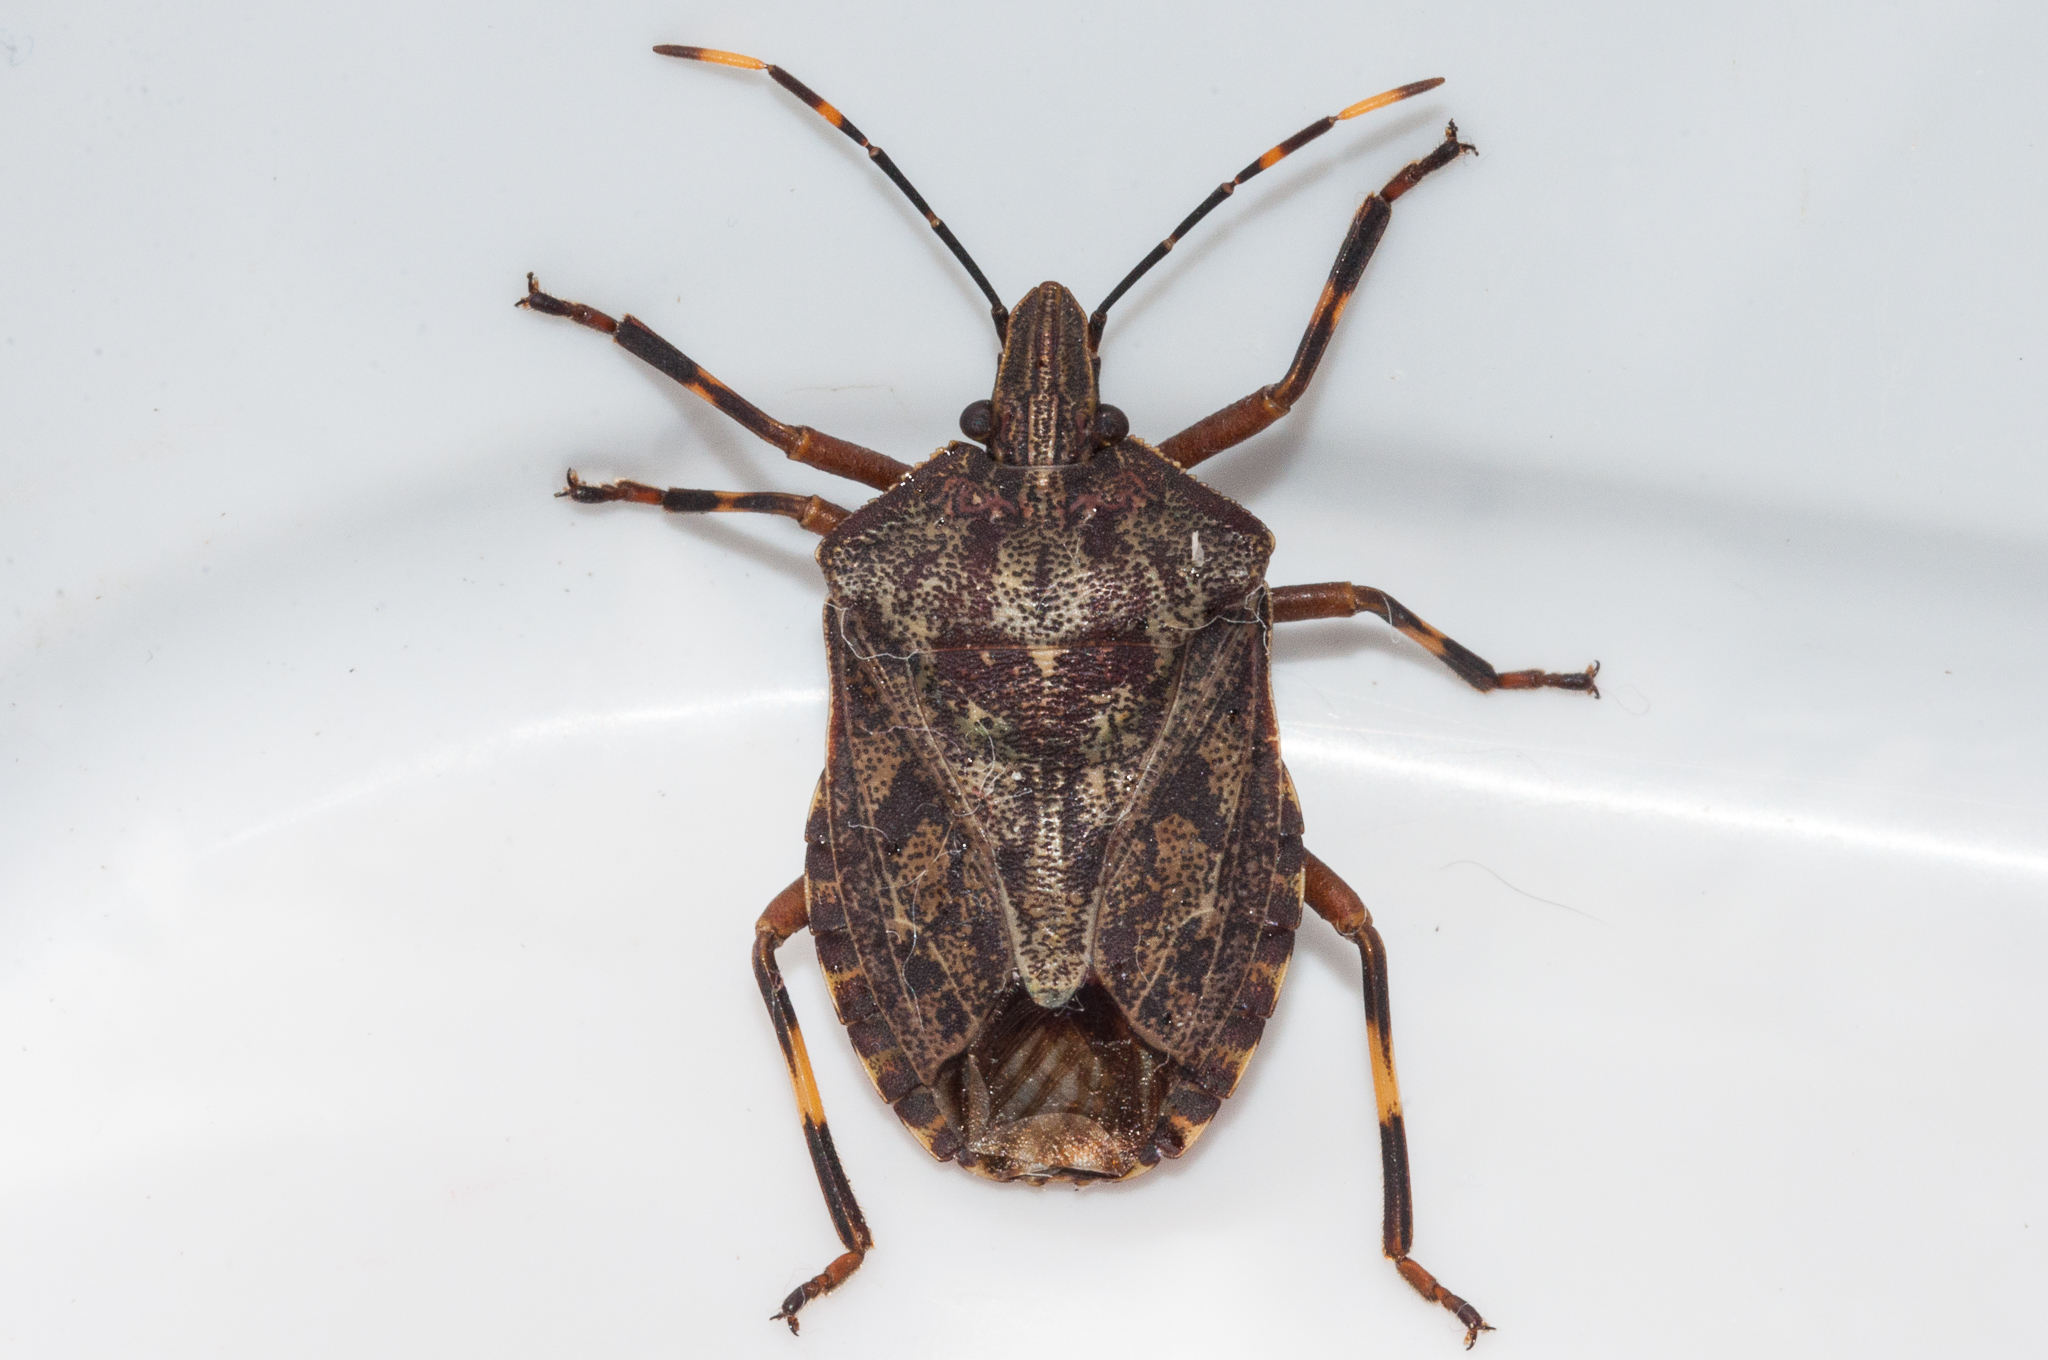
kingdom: Animalia
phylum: Arthropoda
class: Insecta
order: Hemiptera
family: Pentatomidae
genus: Coenomorpha
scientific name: Coenomorpha nervosa
